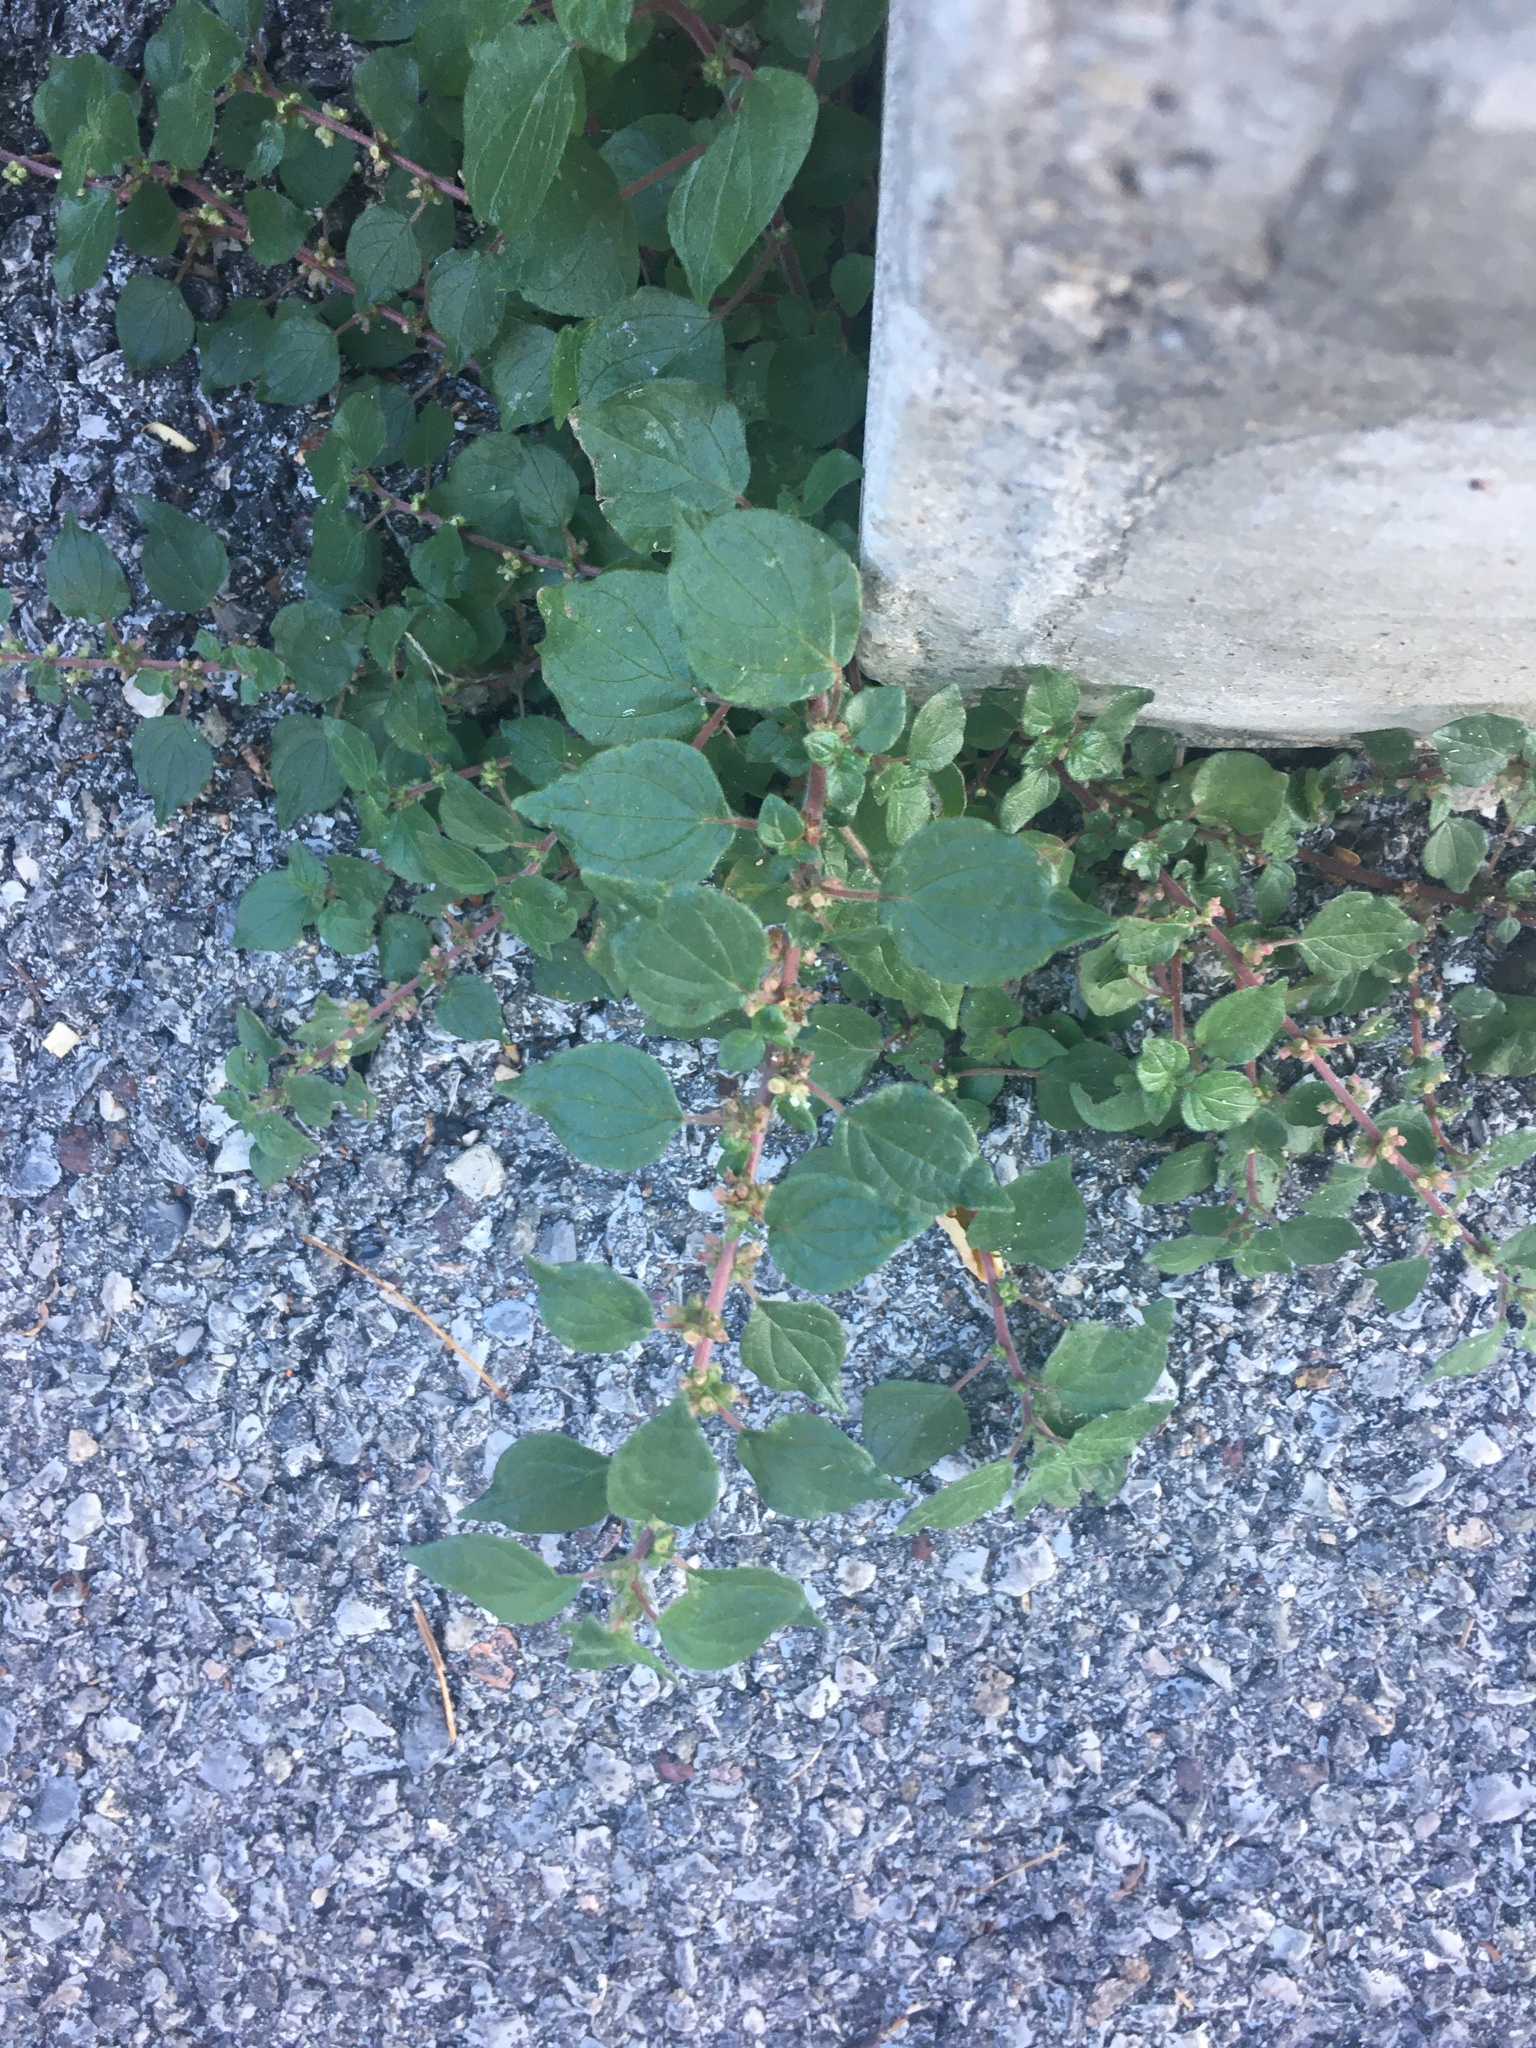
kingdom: Plantae
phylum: Tracheophyta
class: Magnoliopsida
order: Rosales
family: Urticaceae
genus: Parietaria
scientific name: Parietaria judaica
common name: Pellitory-of-the-wall
